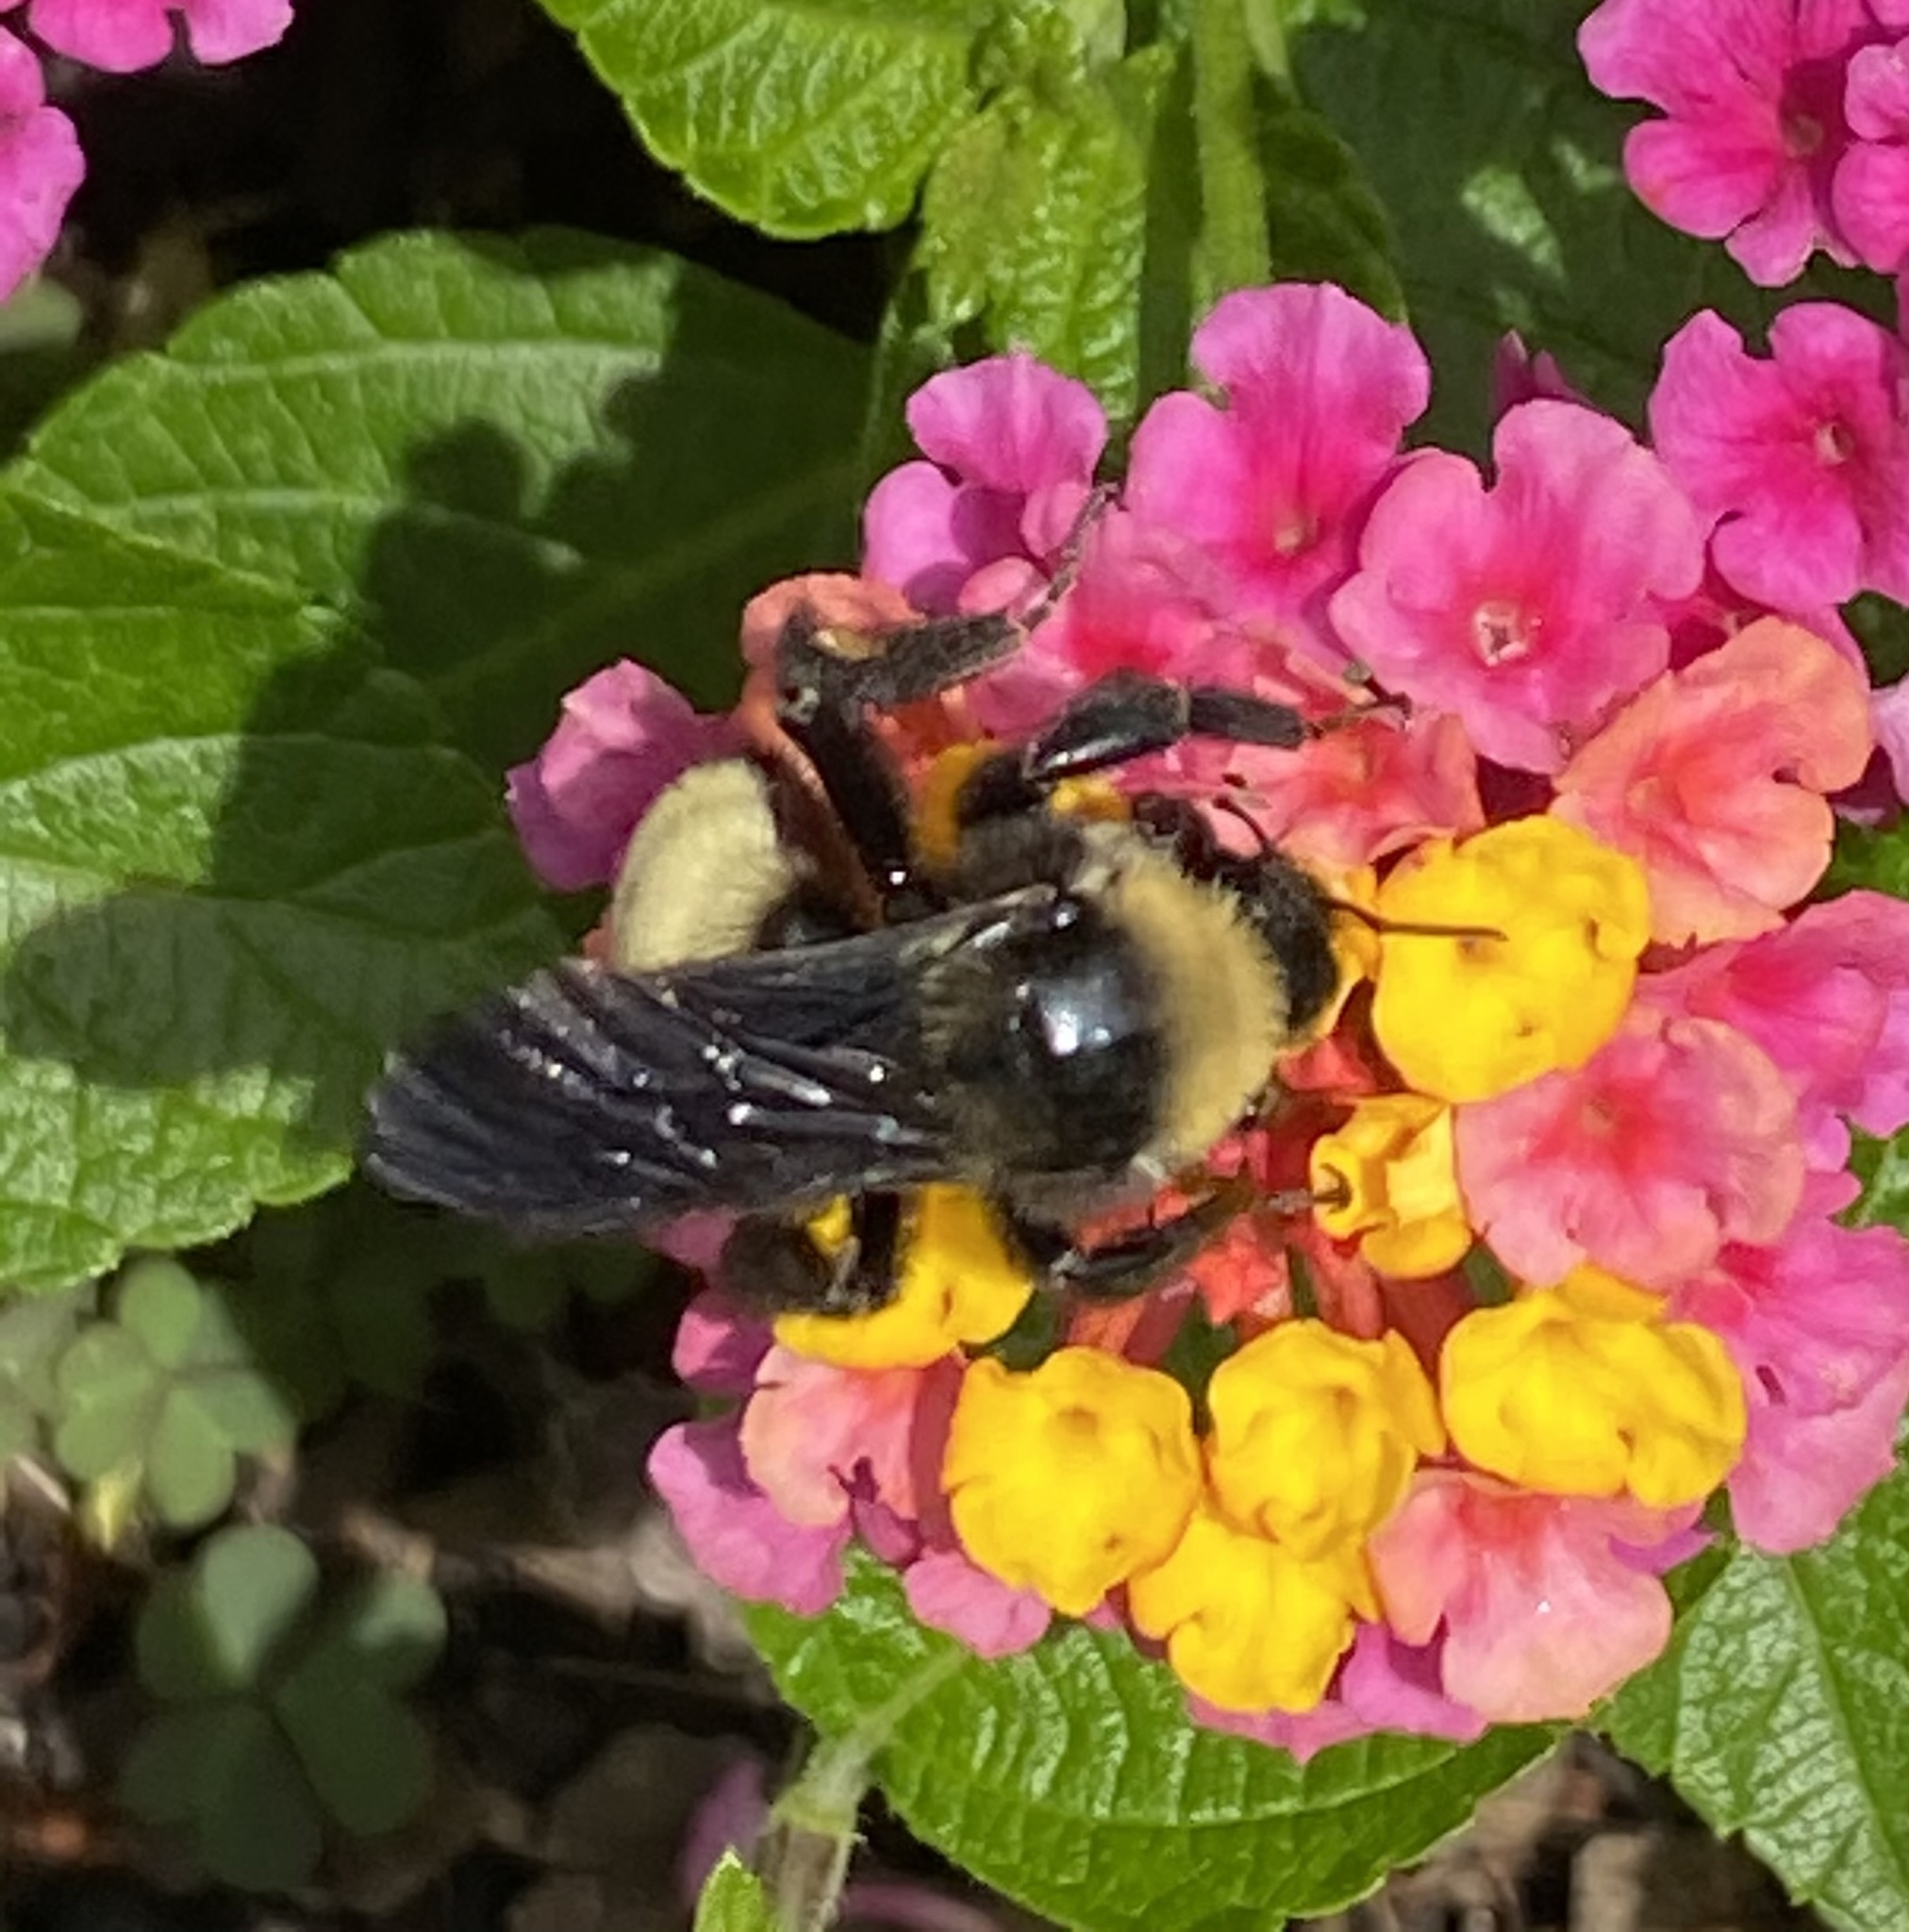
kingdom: Animalia
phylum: Arthropoda
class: Insecta
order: Hymenoptera
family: Apidae
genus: Bombus
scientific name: Bombus pensylvanicus
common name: Bumble bee
